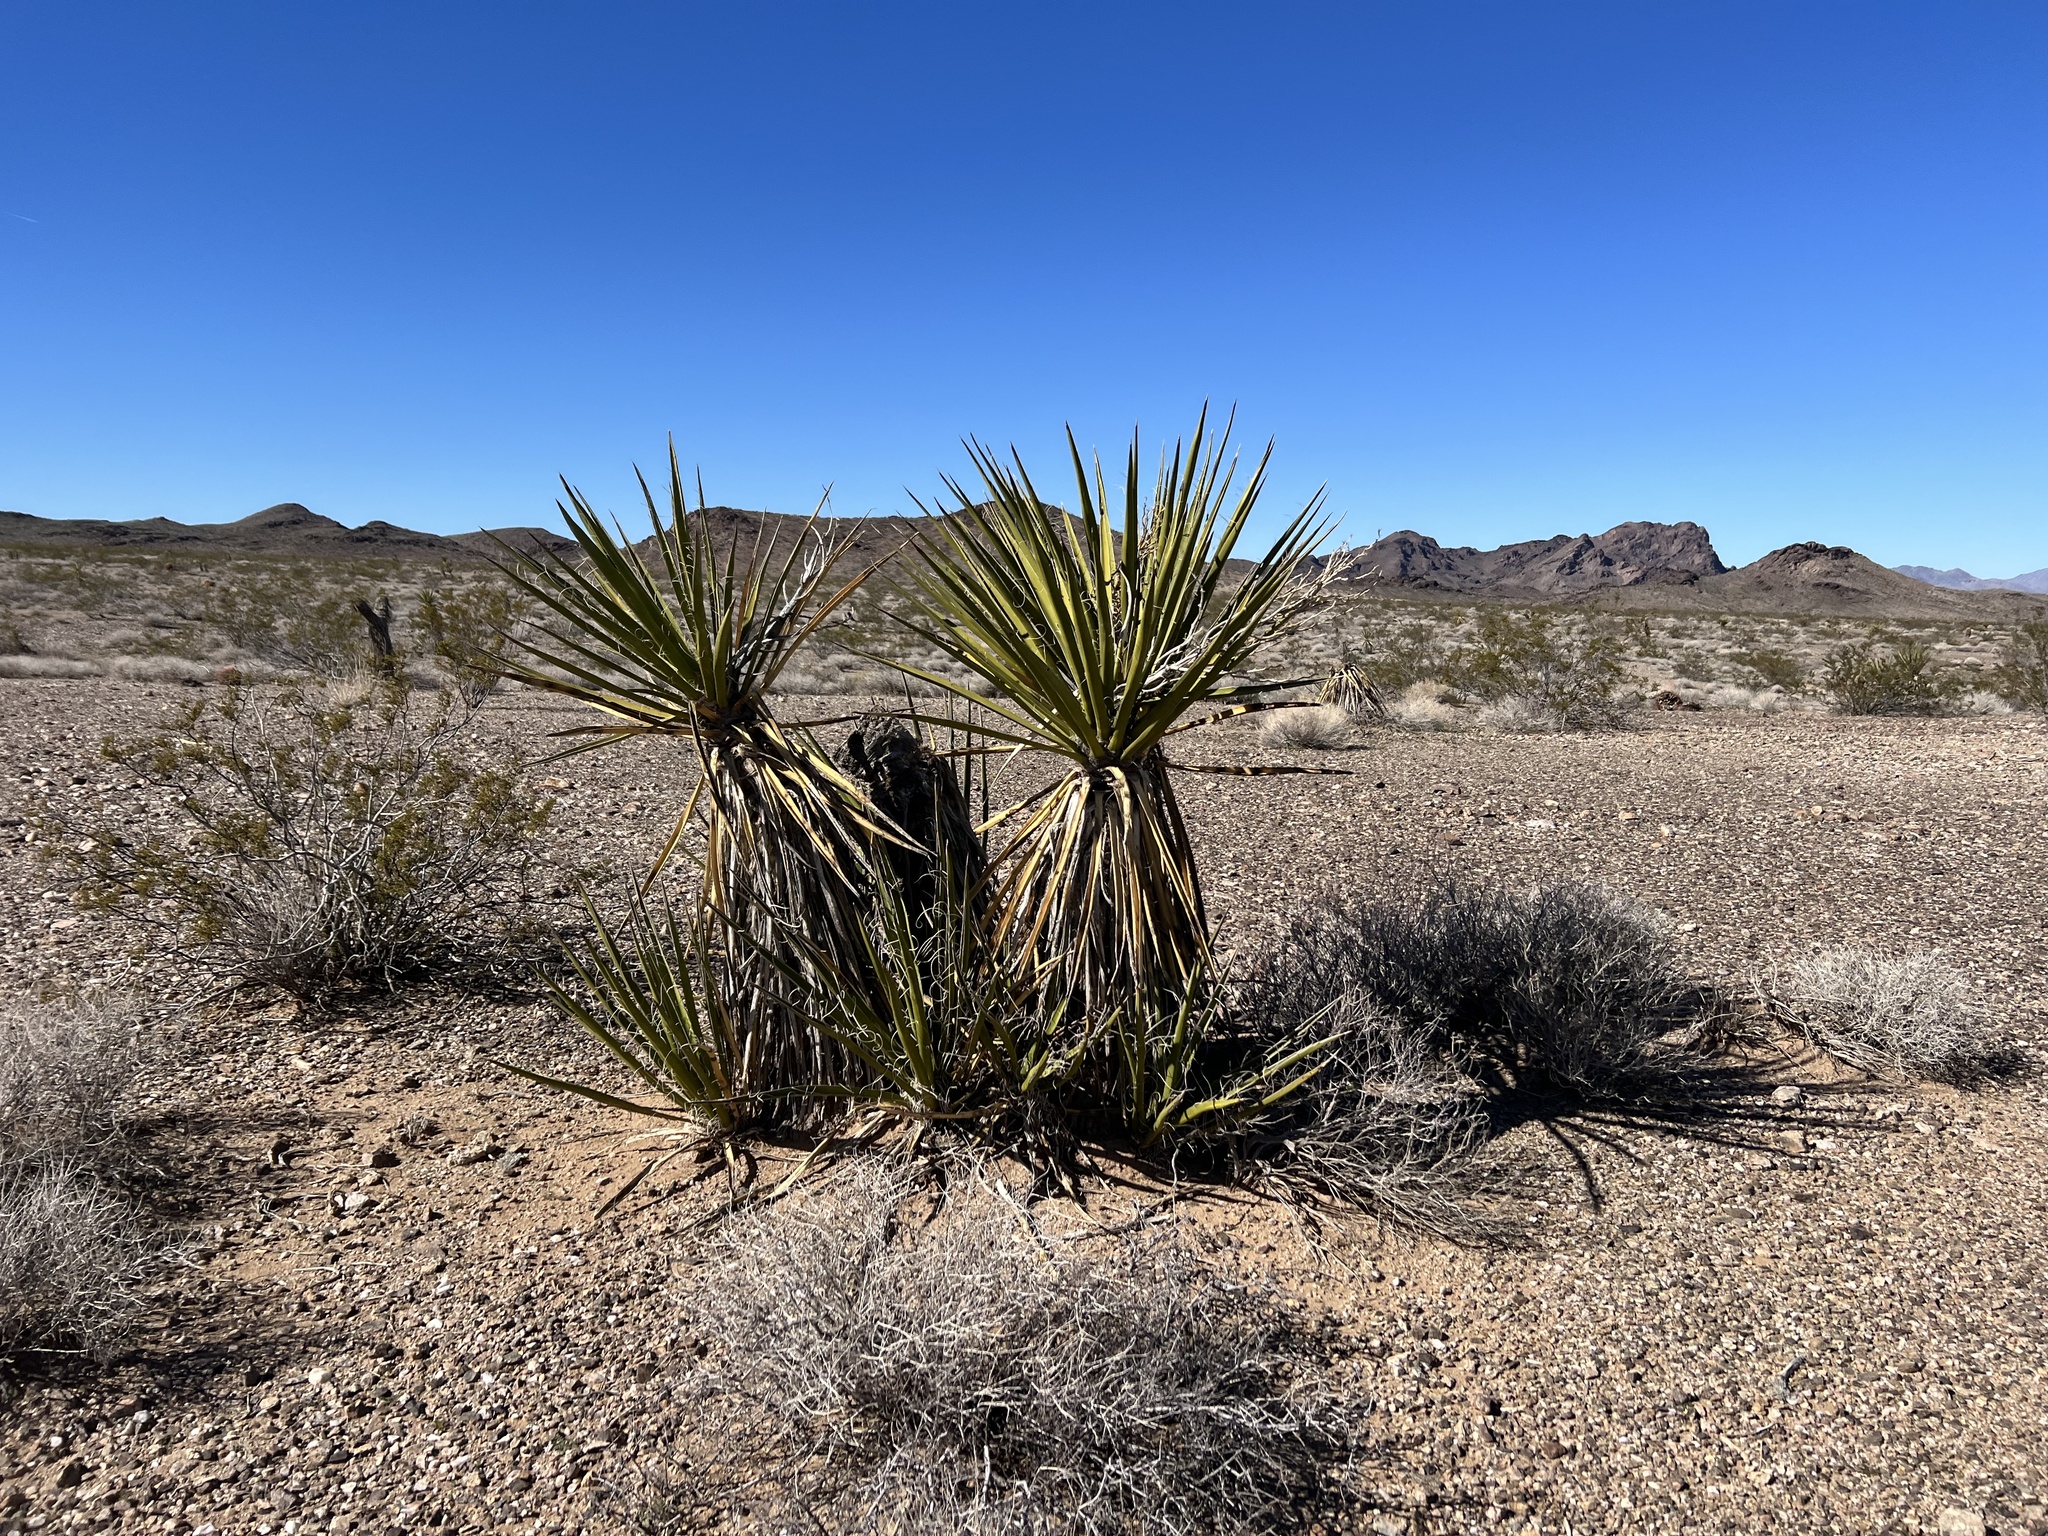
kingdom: Plantae
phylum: Tracheophyta
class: Liliopsida
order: Asparagales
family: Asparagaceae
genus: Yucca
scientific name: Yucca schidigera
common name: Mojave yucca
